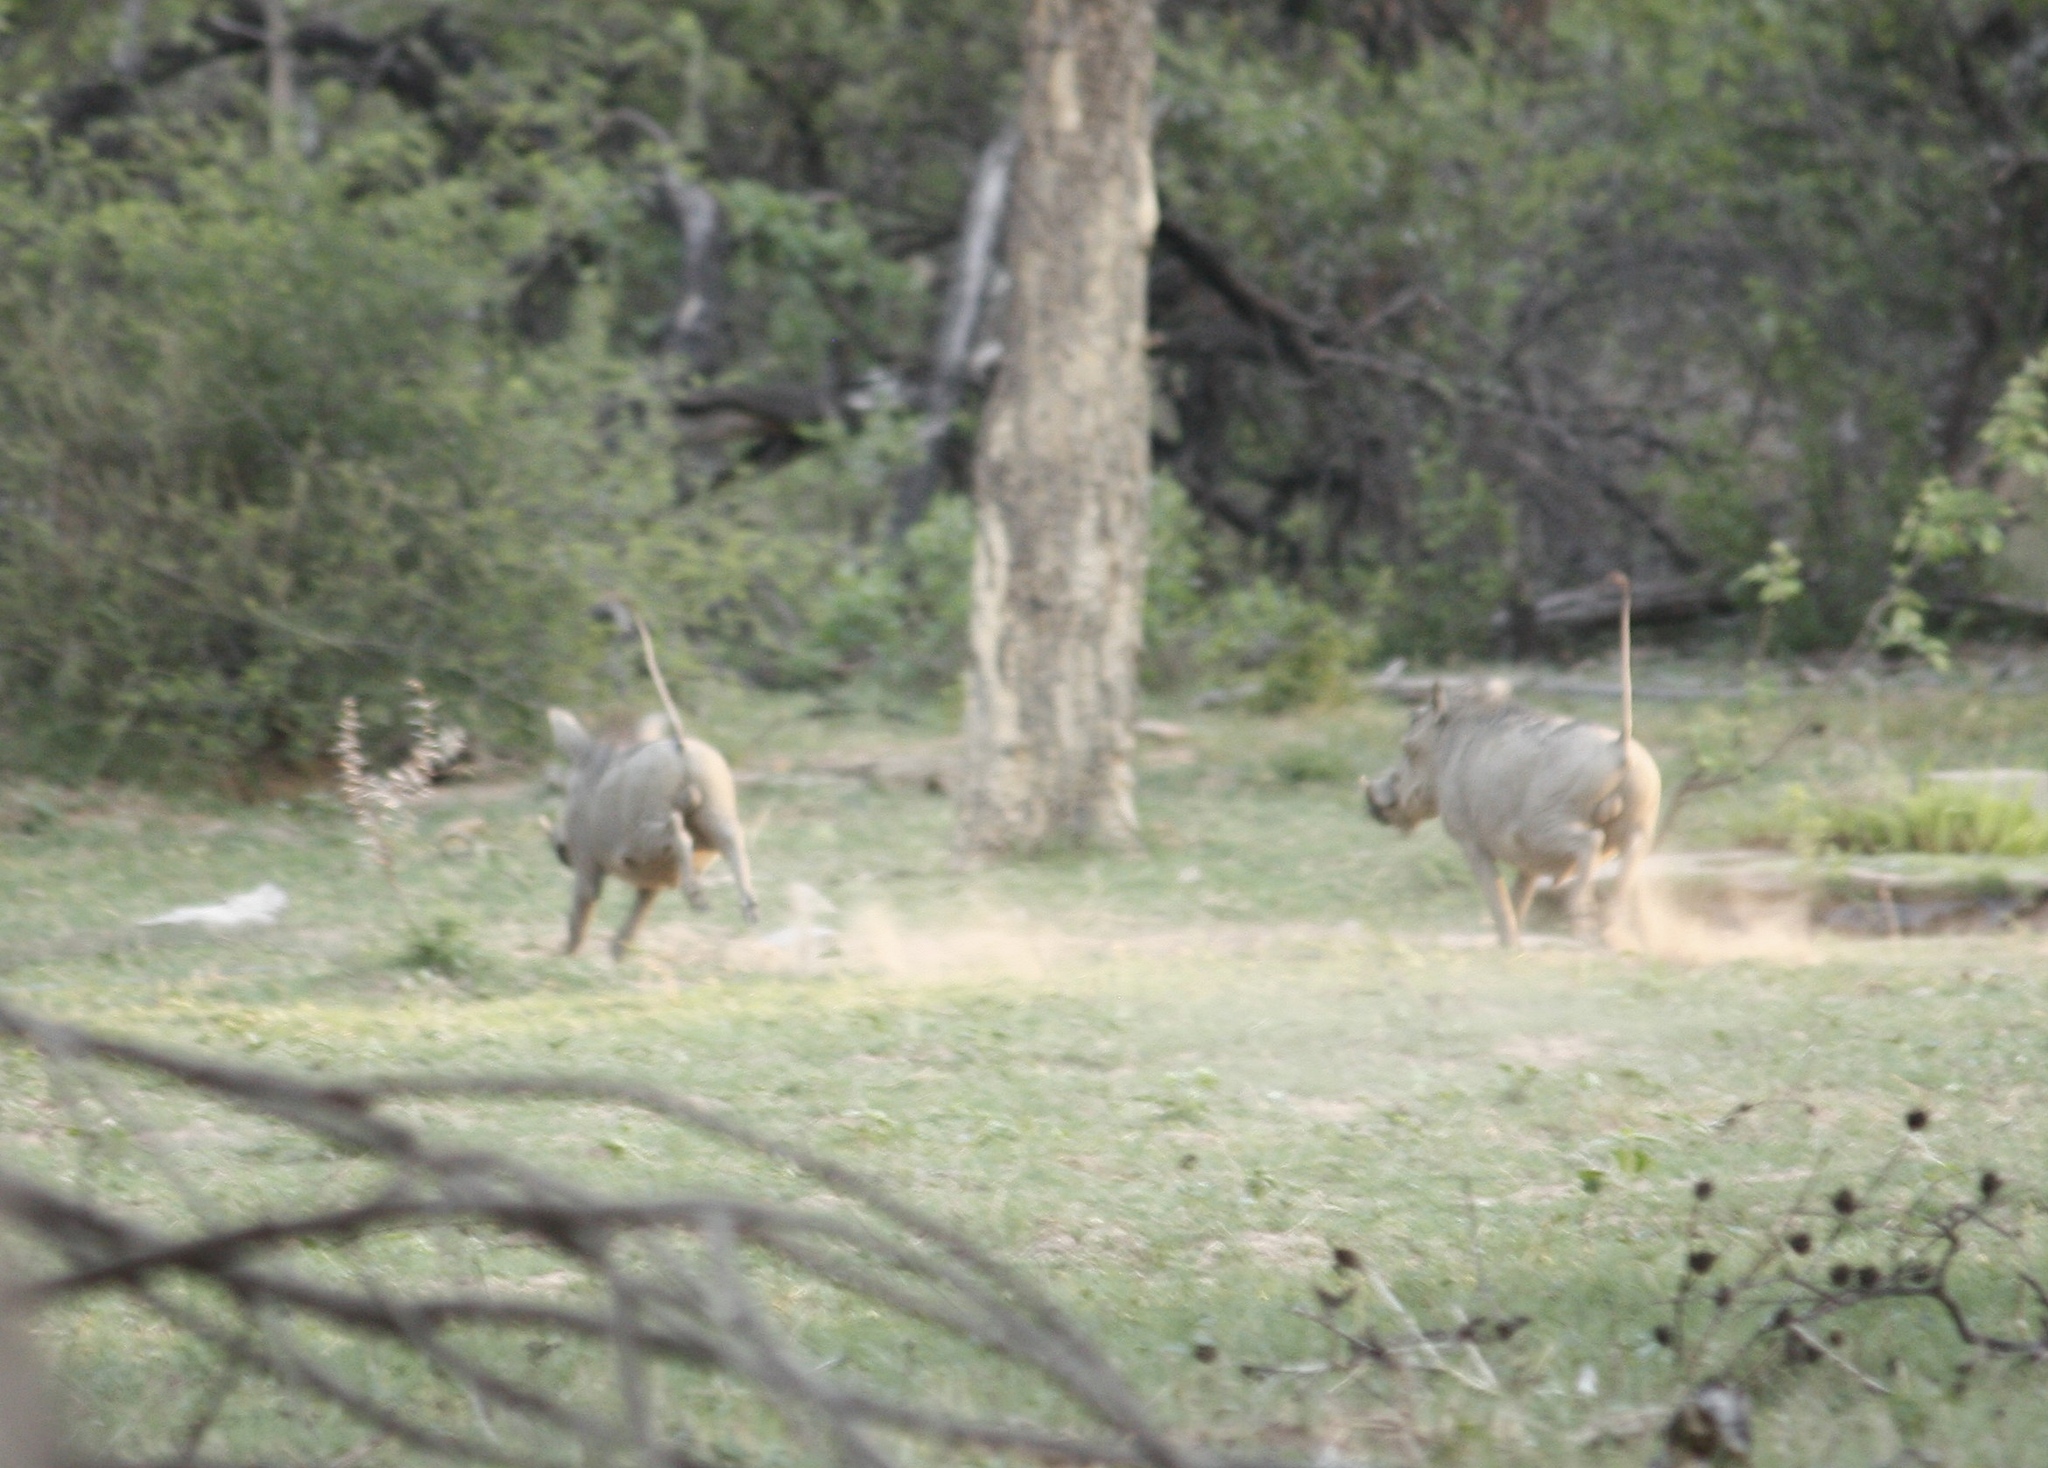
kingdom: Animalia
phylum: Chordata
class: Mammalia
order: Artiodactyla
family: Suidae
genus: Phacochoerus
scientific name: Phacochoerus africanus
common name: Common warthog
